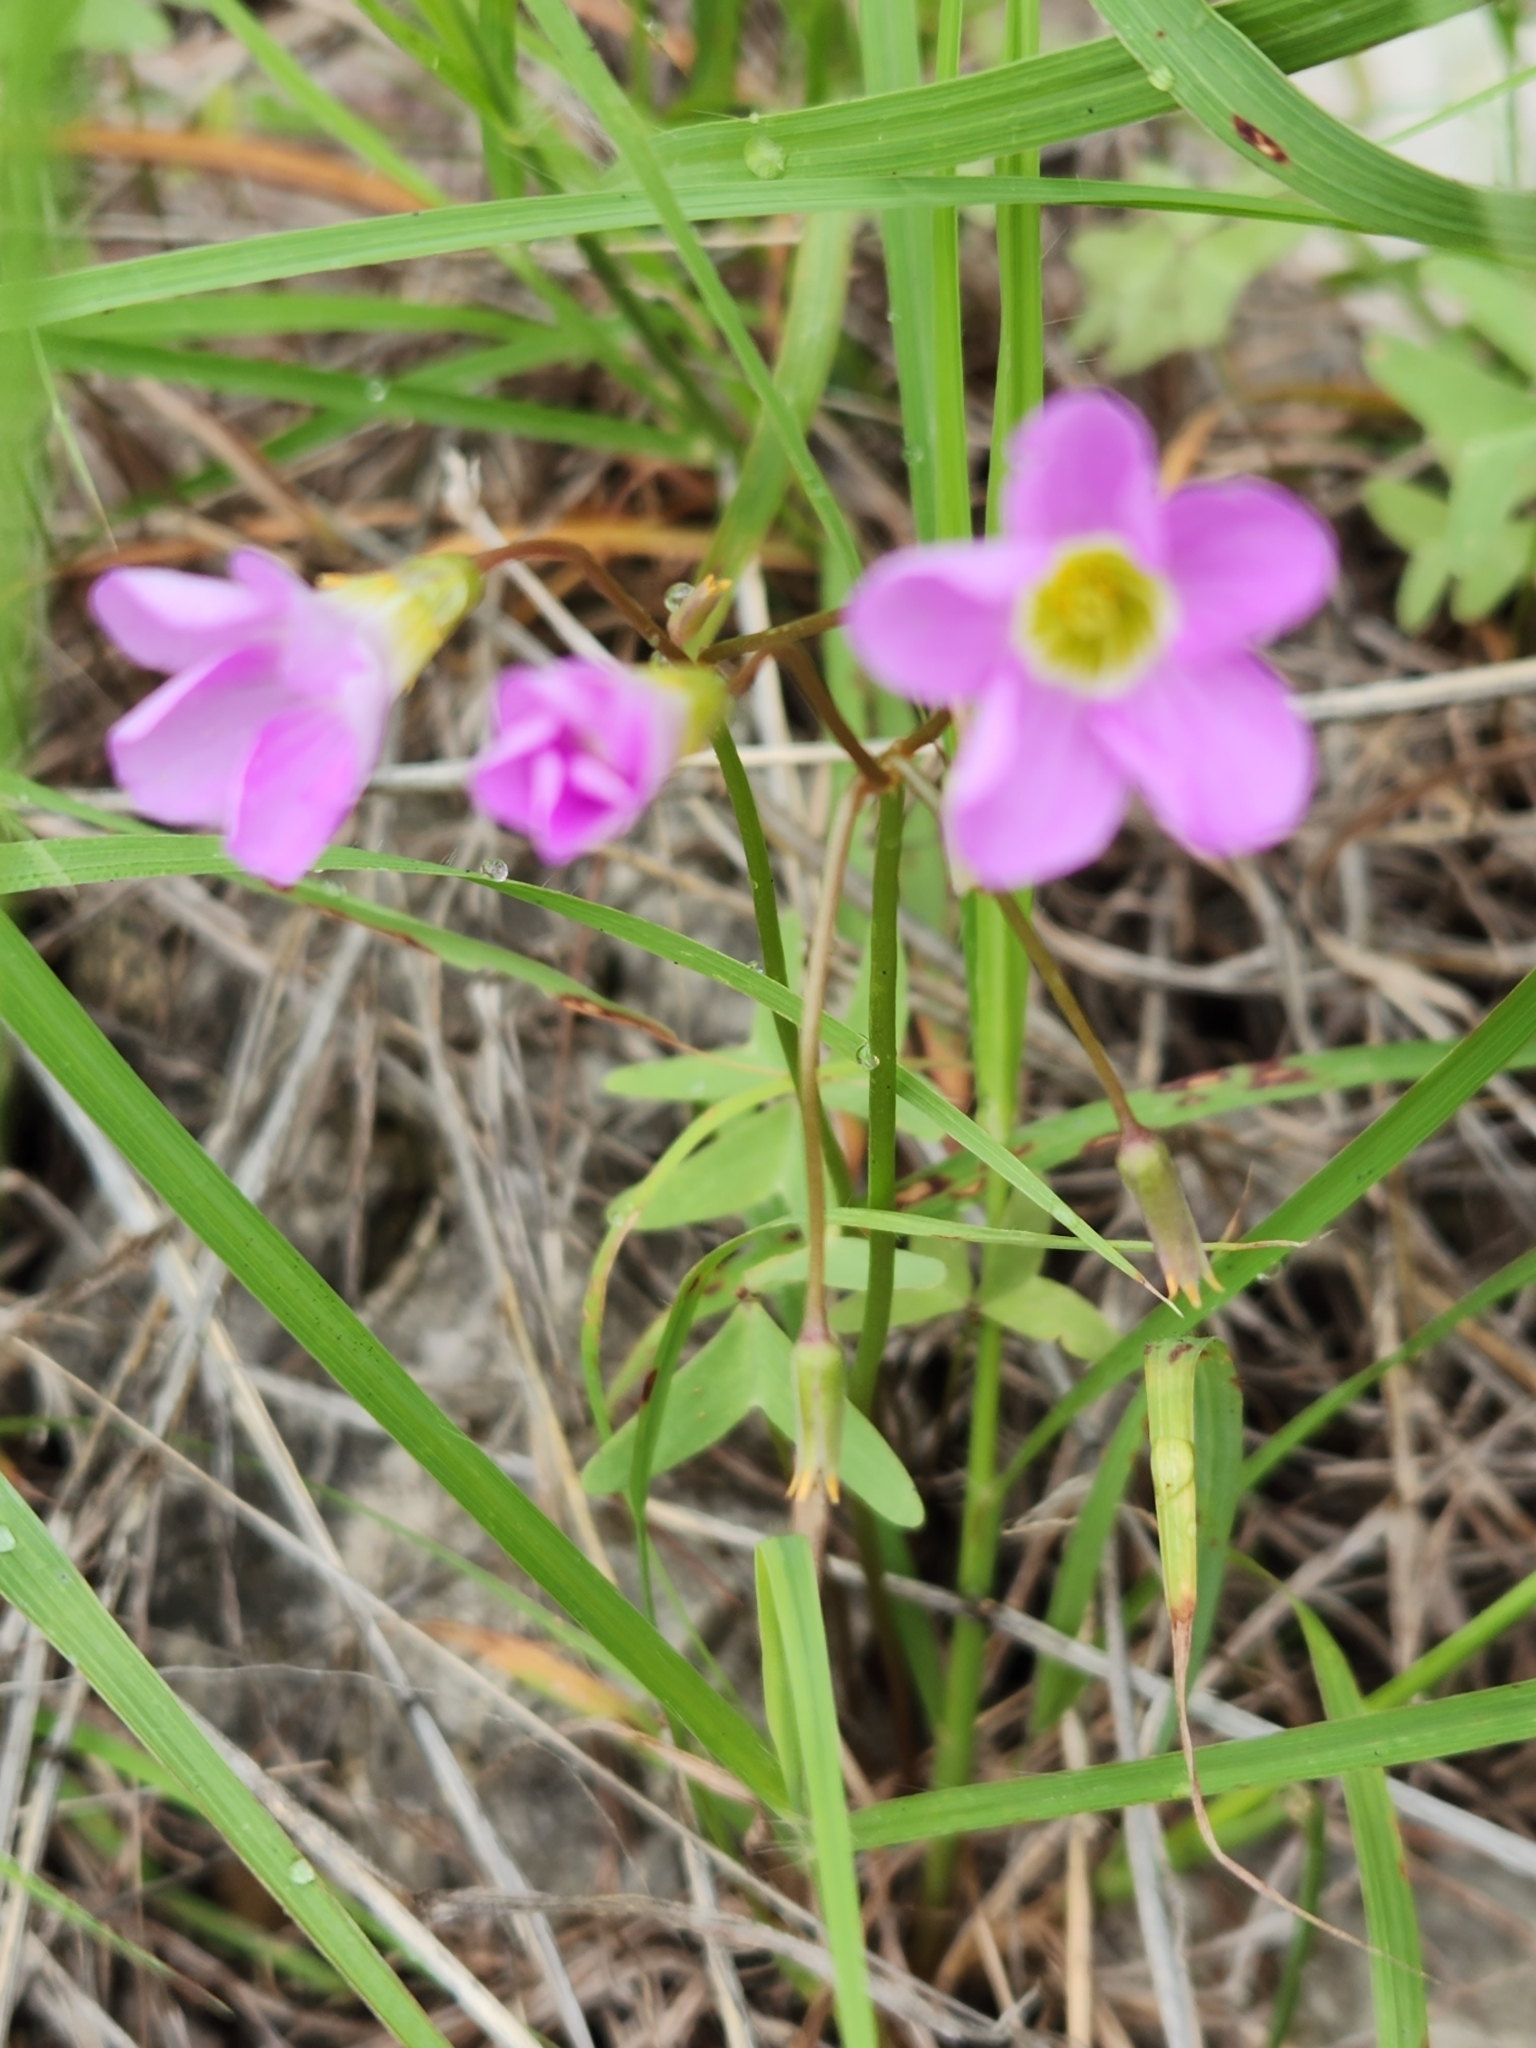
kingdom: Plantae
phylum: Tracheophyta
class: Magnoliopsida
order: Oxalidales
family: Oxalidaceae
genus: Oxalis
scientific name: Oxalis drummondii
